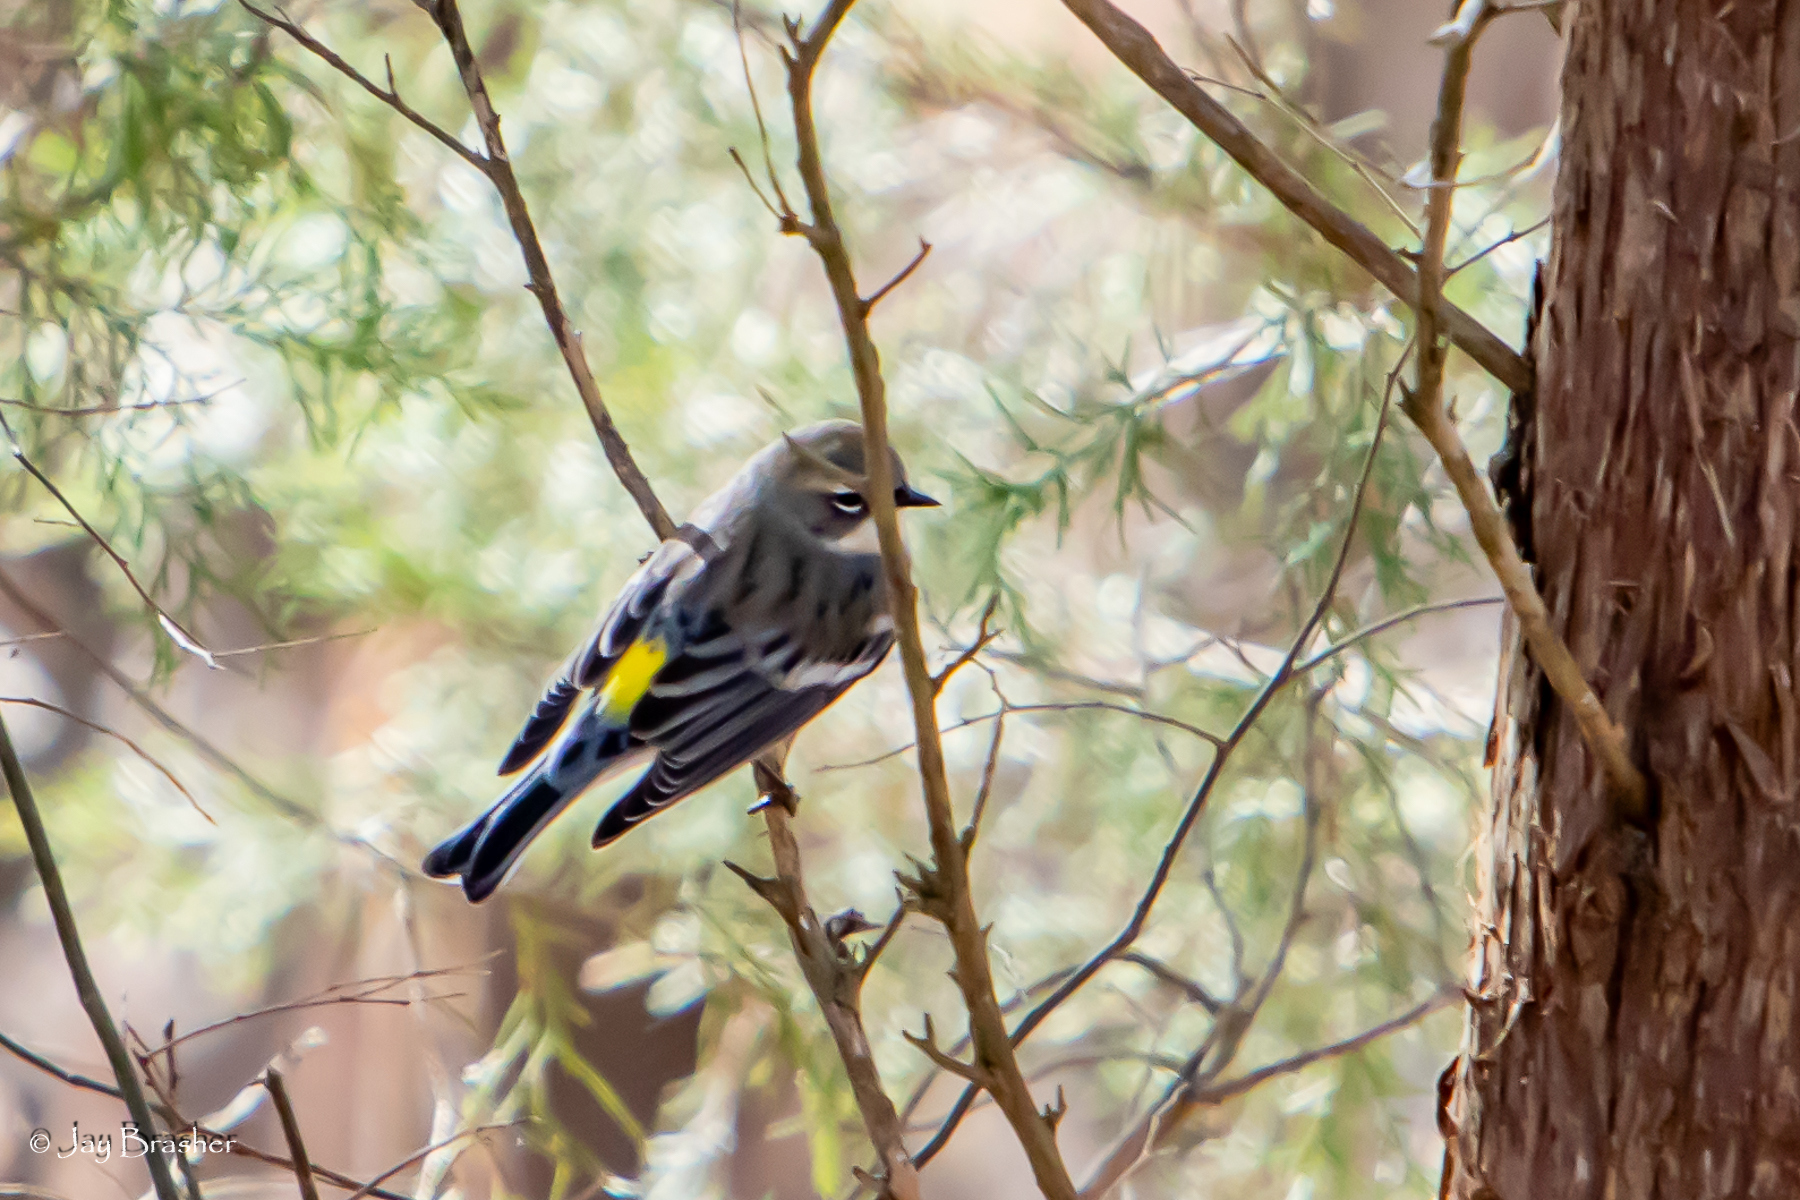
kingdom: Animalia
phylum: Chordata
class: Aves
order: Passeriformes
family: Parulidae
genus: Setophaga
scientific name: Setophaga coronata
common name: Myrtle warbler
